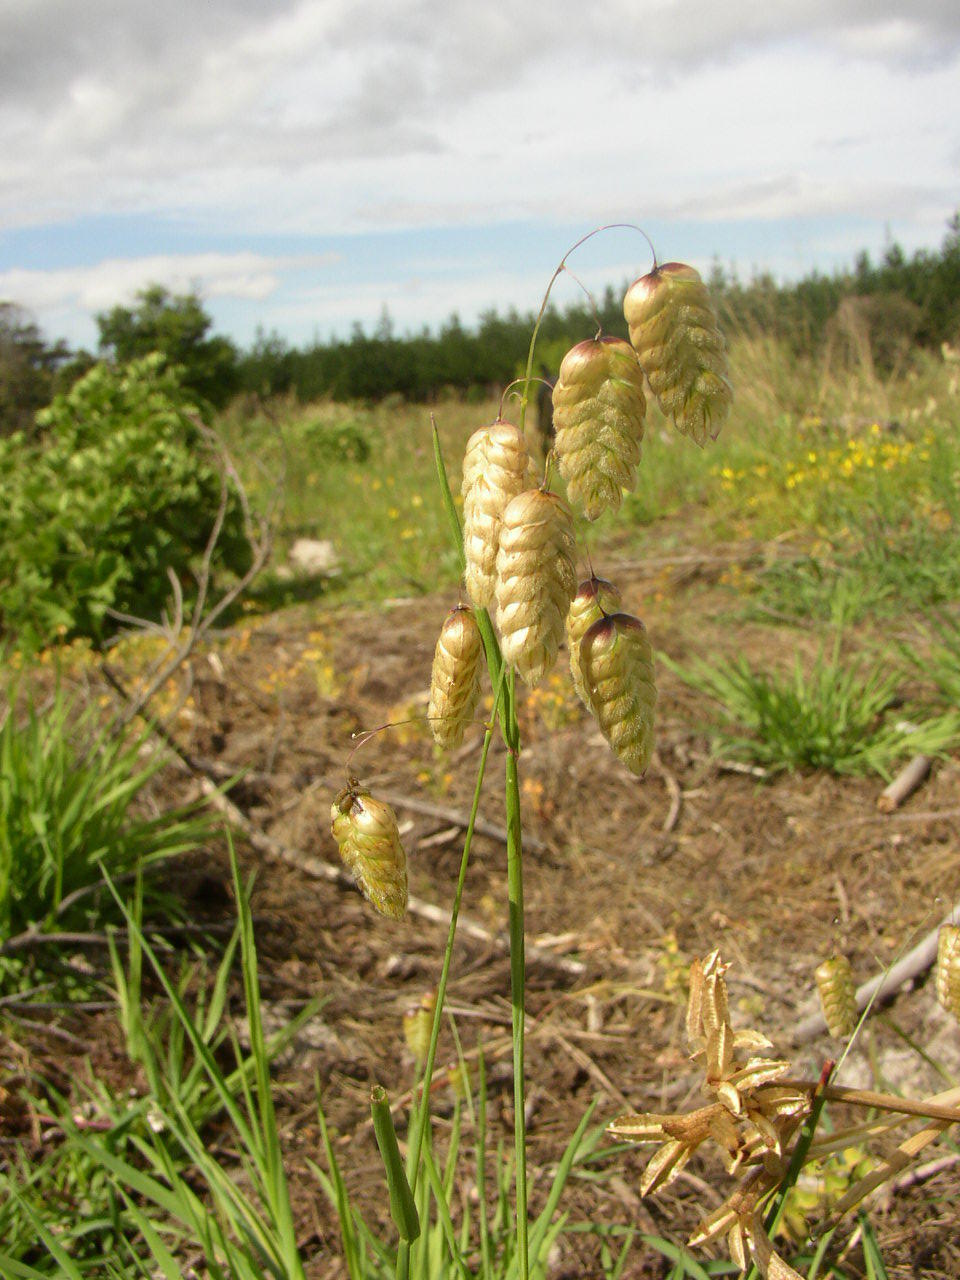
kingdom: Plantae
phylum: Tracheophyta
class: Liliopsida
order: Poales
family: Poaceae
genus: Briza
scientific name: Briza maxima
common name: Big quakinggrass
